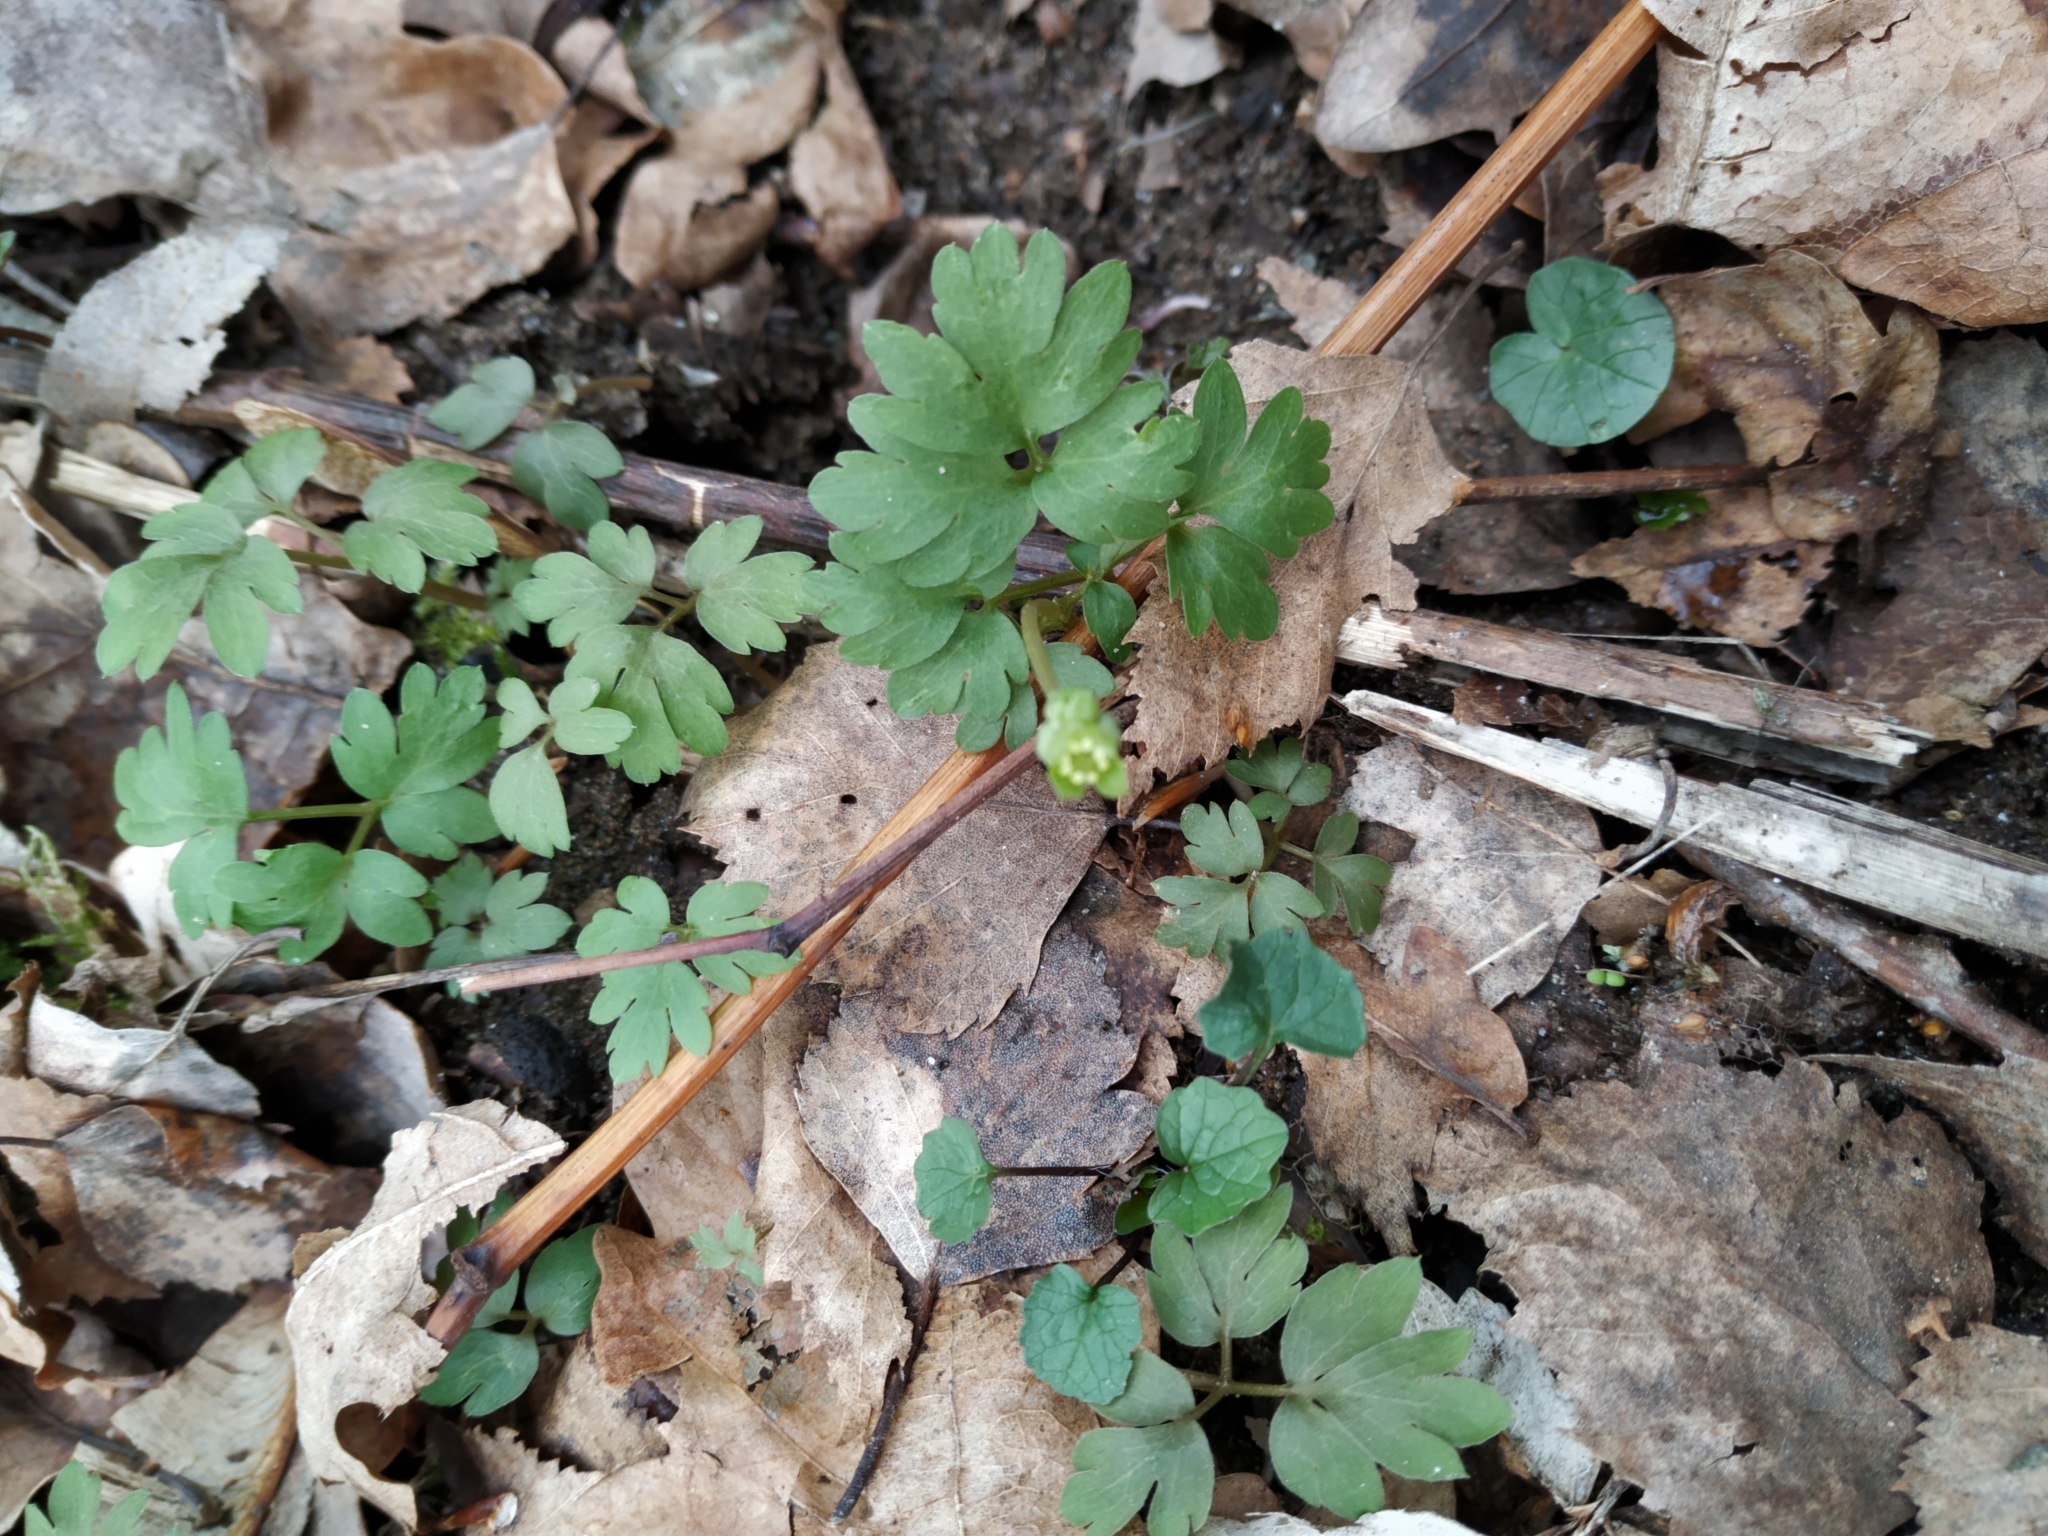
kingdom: Plantae
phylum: Tracheophyta
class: Magnoliopsida
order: Dipsacales
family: Viburnaceae
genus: Adoxa
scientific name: Adoxa moschatellina
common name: Moschatel
